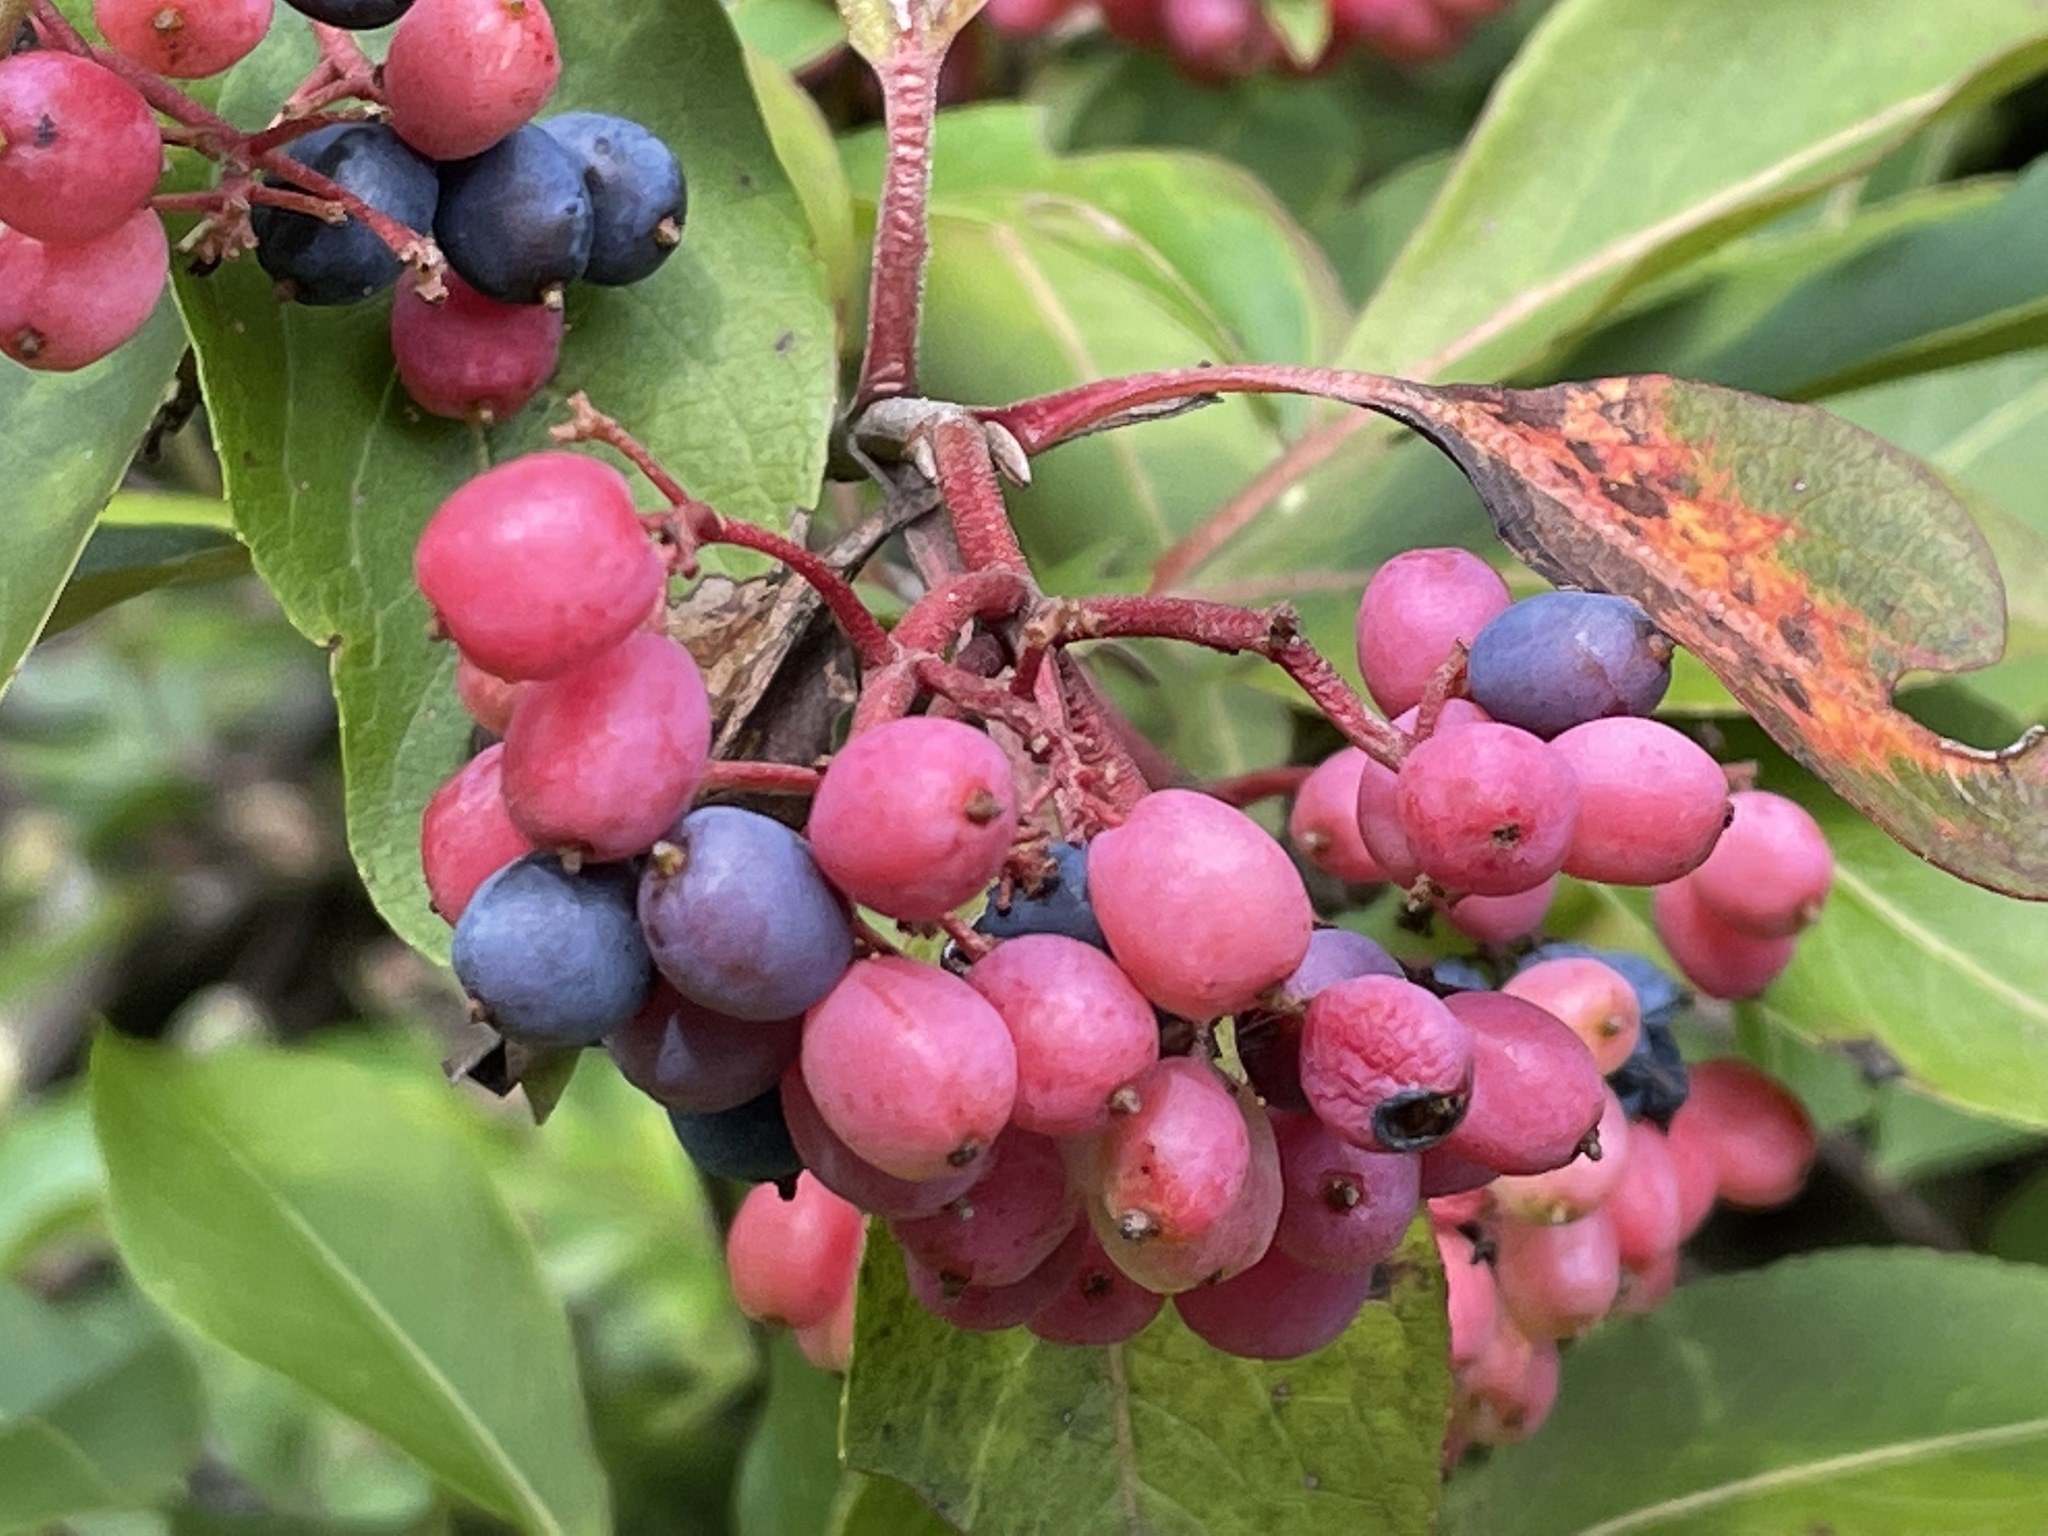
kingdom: Plantae
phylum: Tracheophyta
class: Magnoliopsida
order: Dipsacales
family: Viburnaceae
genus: Viburnum
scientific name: Viburnum cassinoides
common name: Swamp haw
